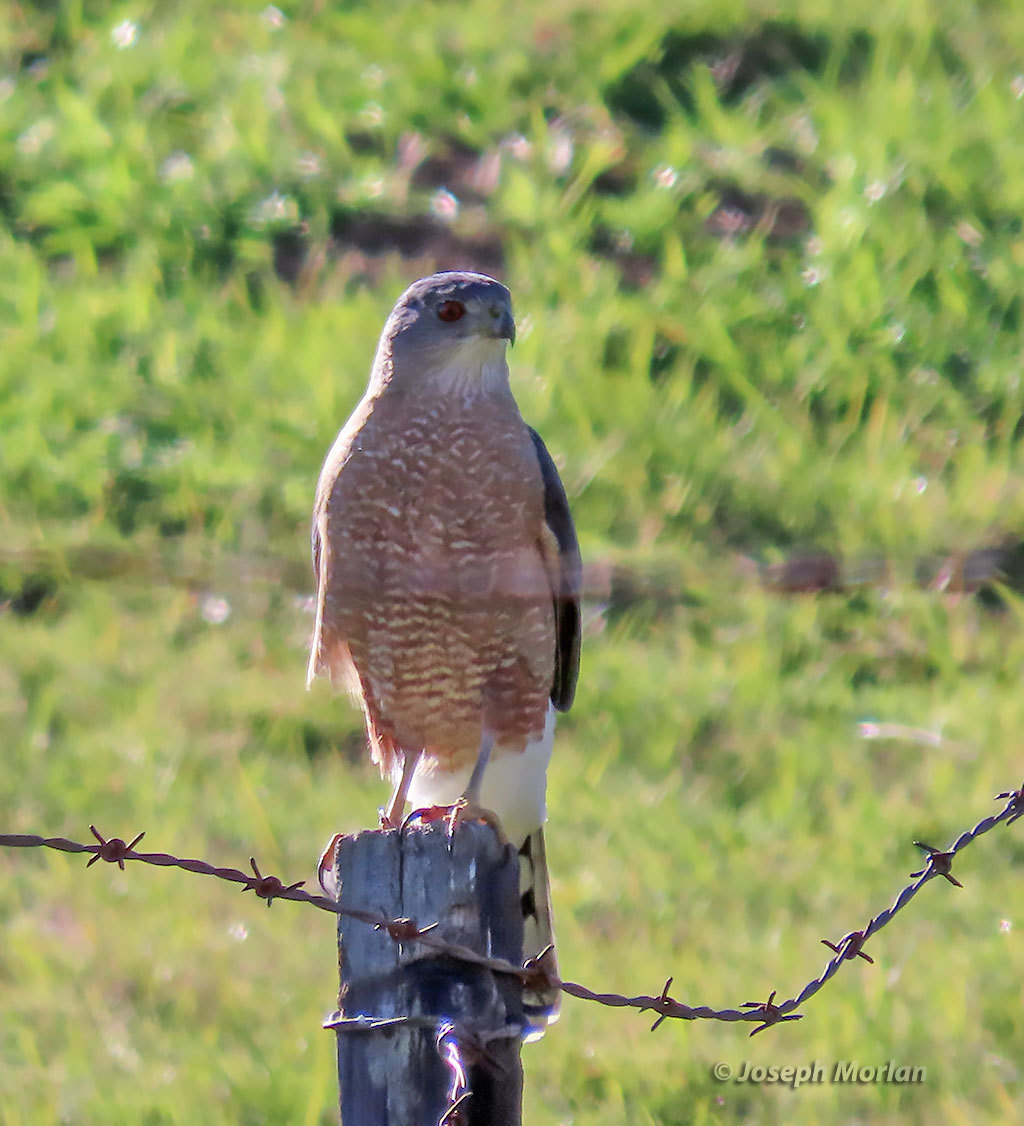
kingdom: Animalia
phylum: Chordata
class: Aves
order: Accipitriformes
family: Accipitridae
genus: Accipiter
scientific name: Accipiter cooperii
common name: Cooper's hawk
